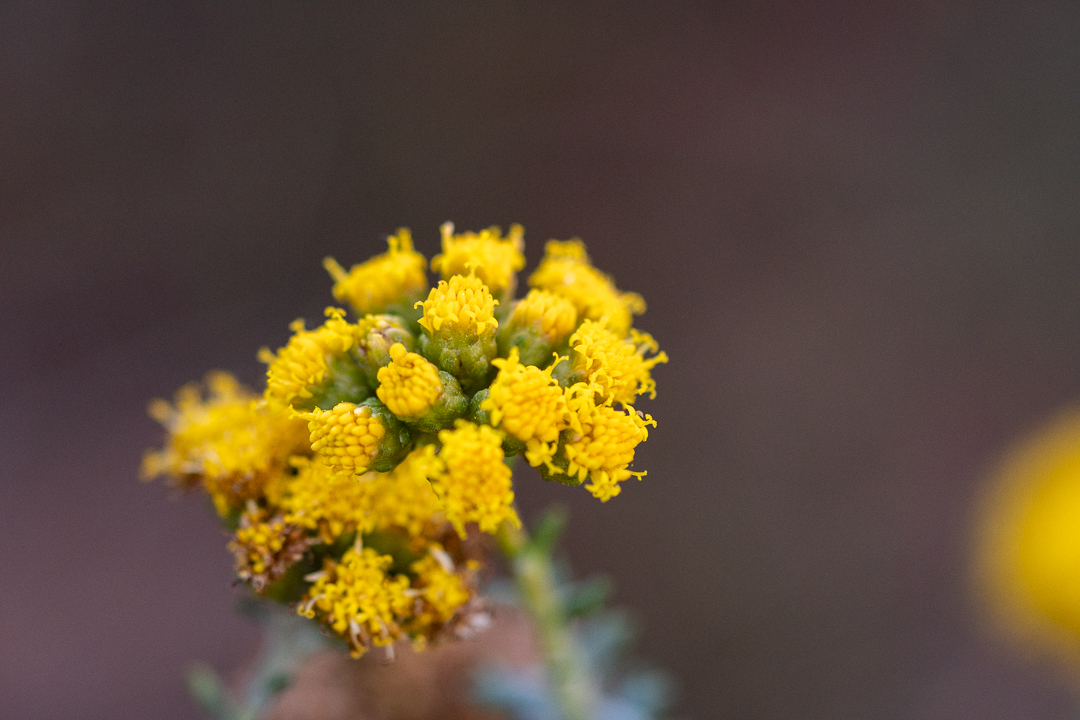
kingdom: Plantae
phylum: Tracheophyta
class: Magnoliopsida
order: Asterales
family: Asteraceae
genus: Athanasia
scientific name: Athanasia trifurcata
